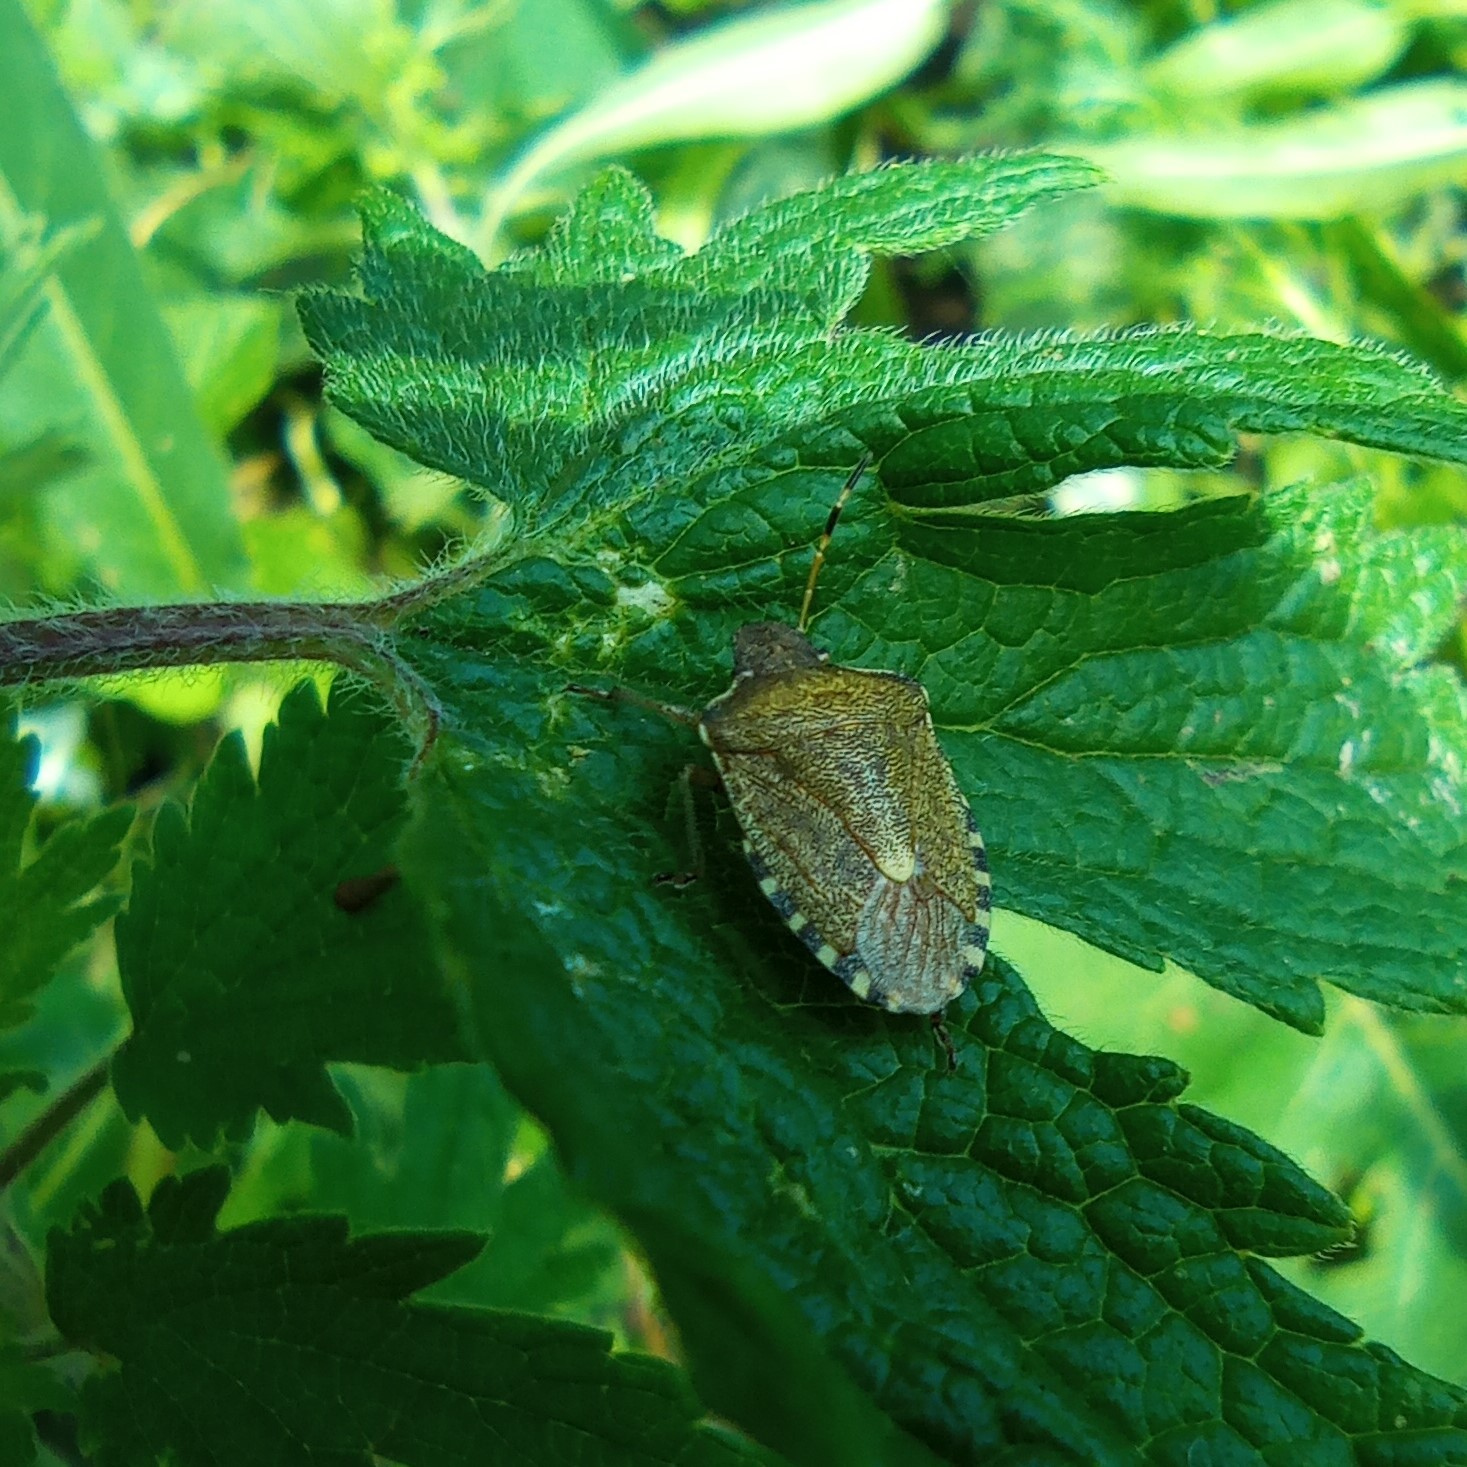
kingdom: Animalia
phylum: Arthropoda
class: Insecta
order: Hemiptera
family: Pentatomidae
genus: Holcostethus
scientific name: Holcostethus strictus
